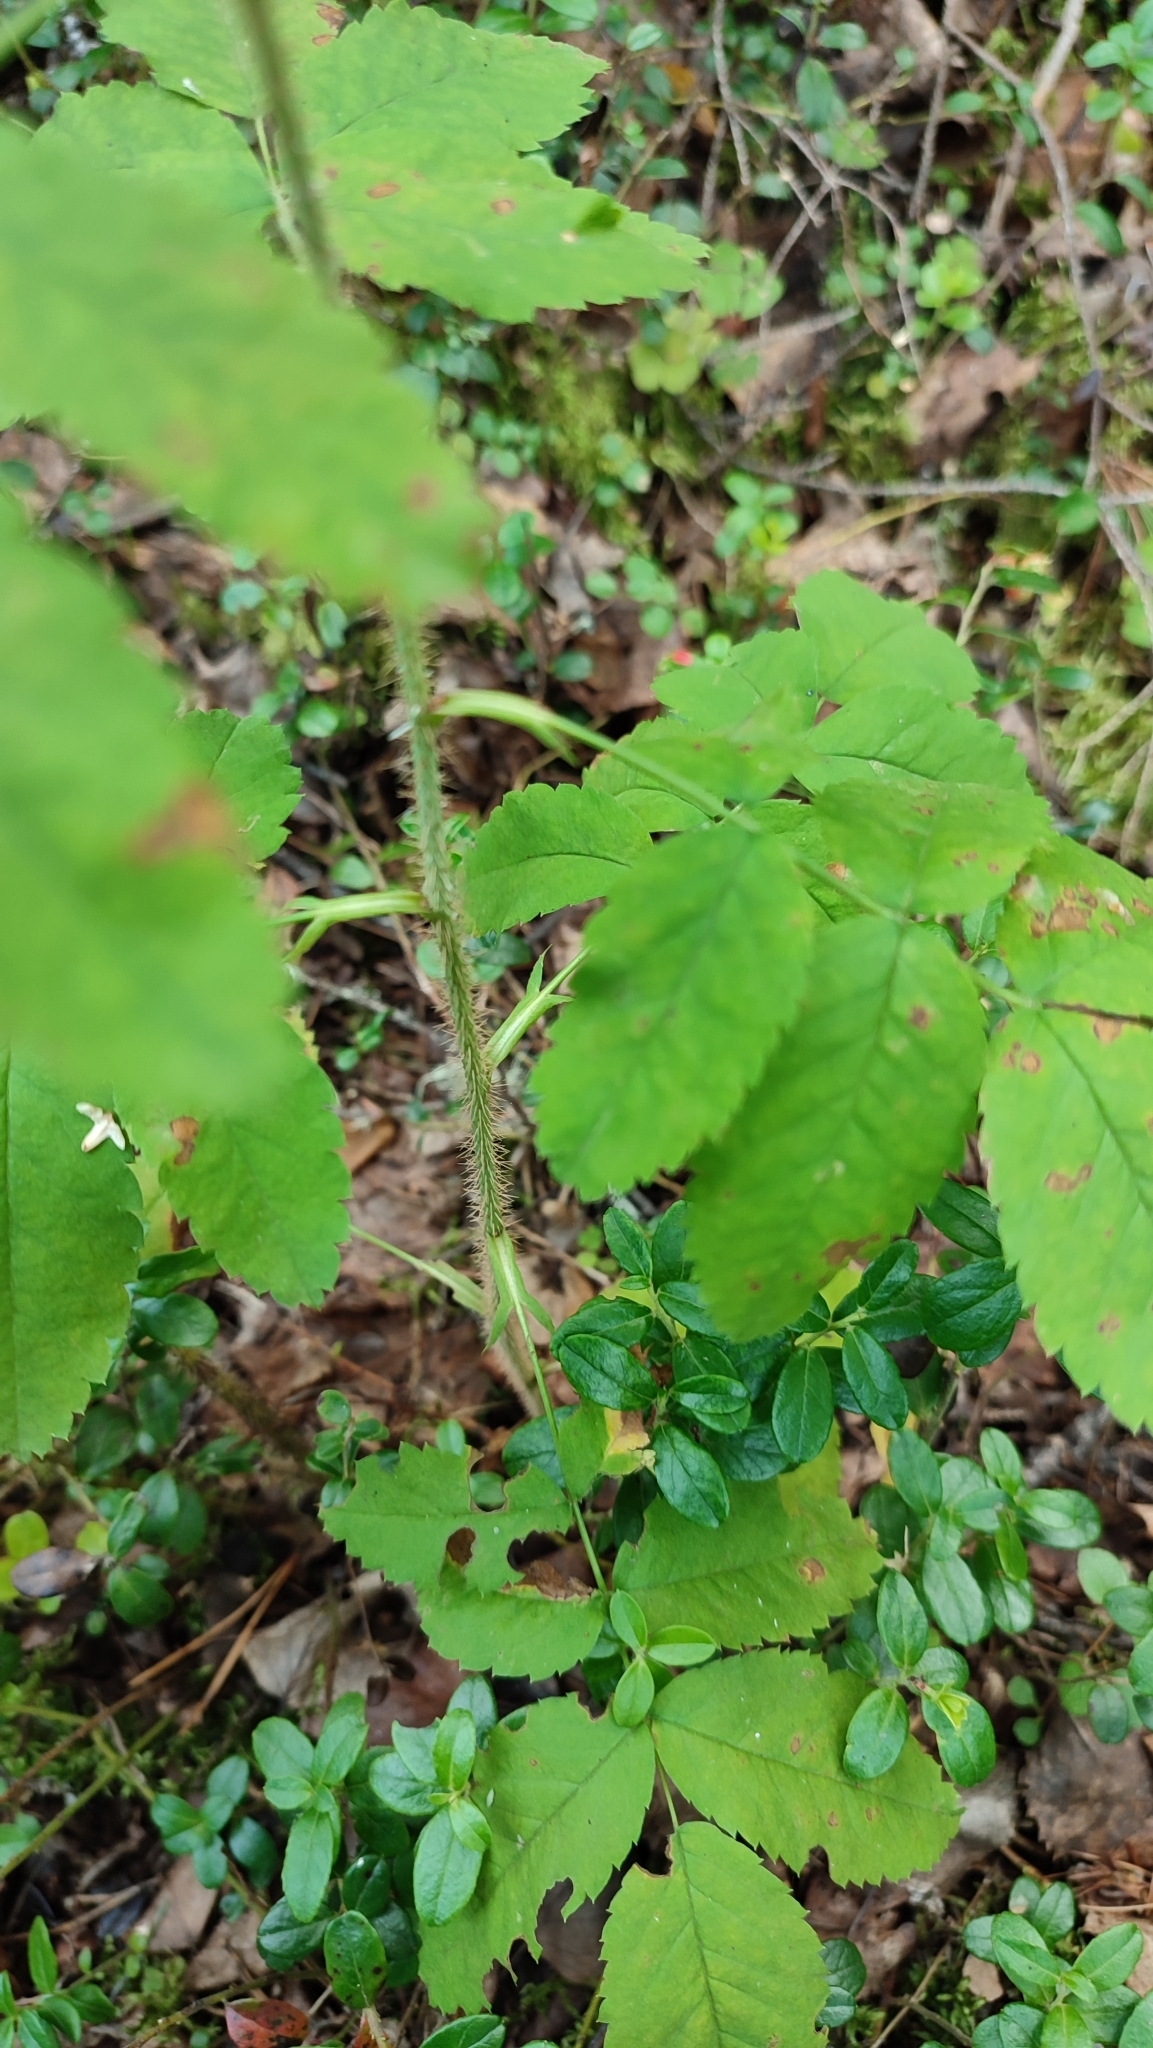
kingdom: Plantae
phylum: Tracheophyta
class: Magnoliopsida
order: Rosales
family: Rosaceae
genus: Rosa
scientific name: Rosa acicularis
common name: Prickly rose
